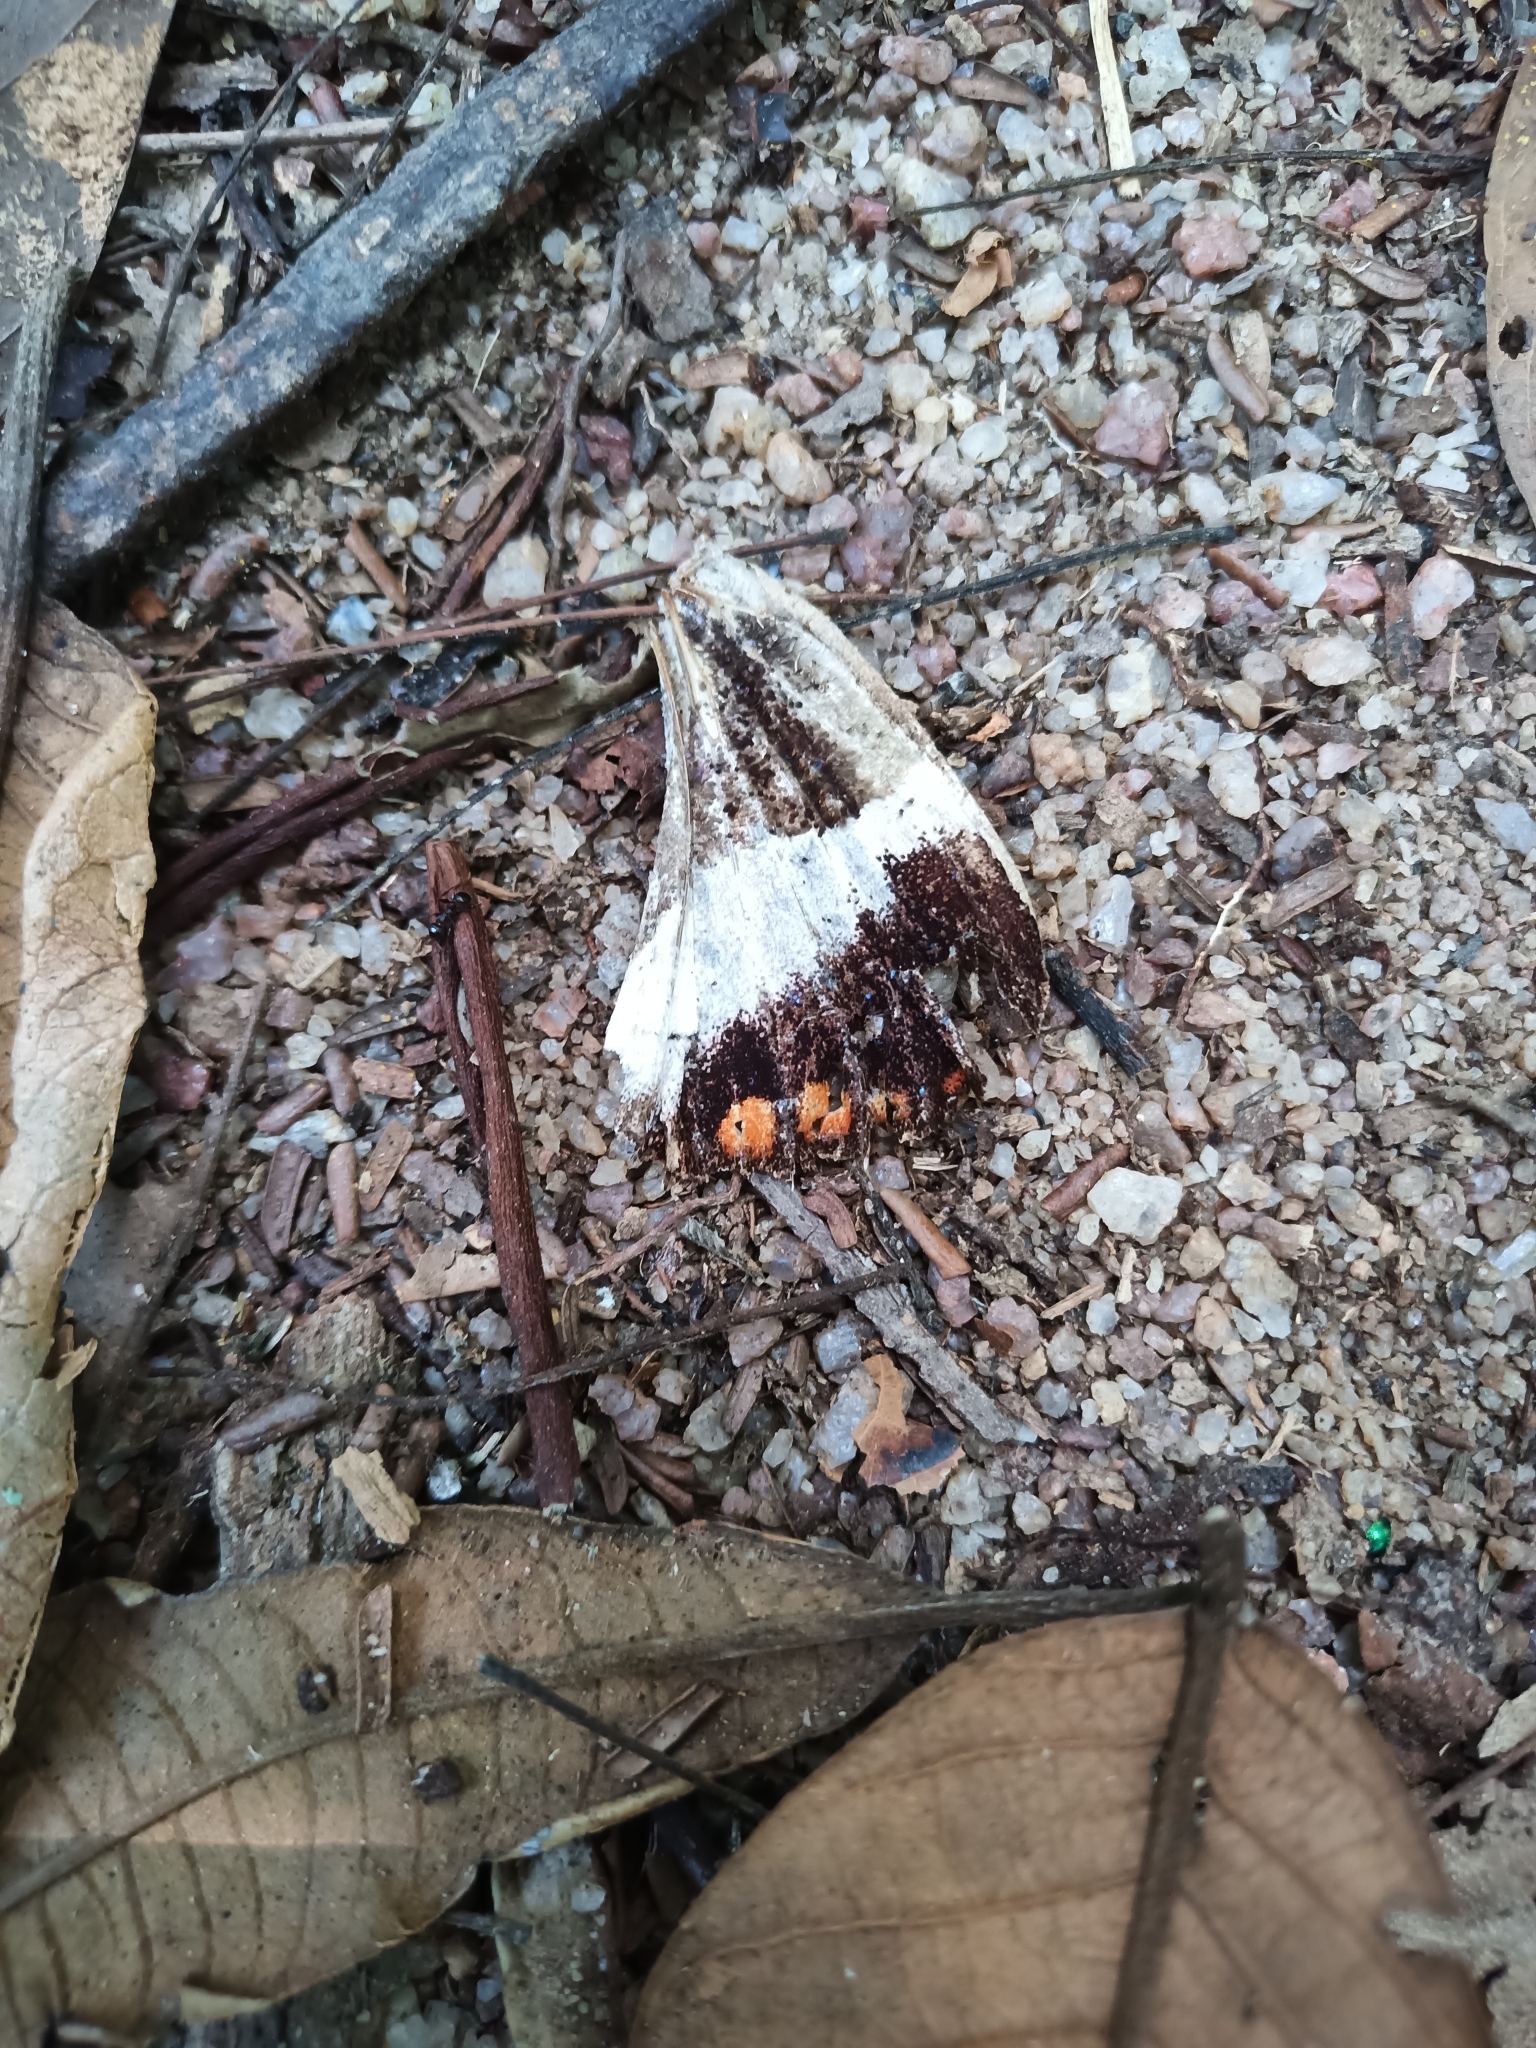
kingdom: Animalia
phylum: Arthropoda
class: Insecta
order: Lepidoptera
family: Castniidae
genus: Castnia
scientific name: Castnia licus
